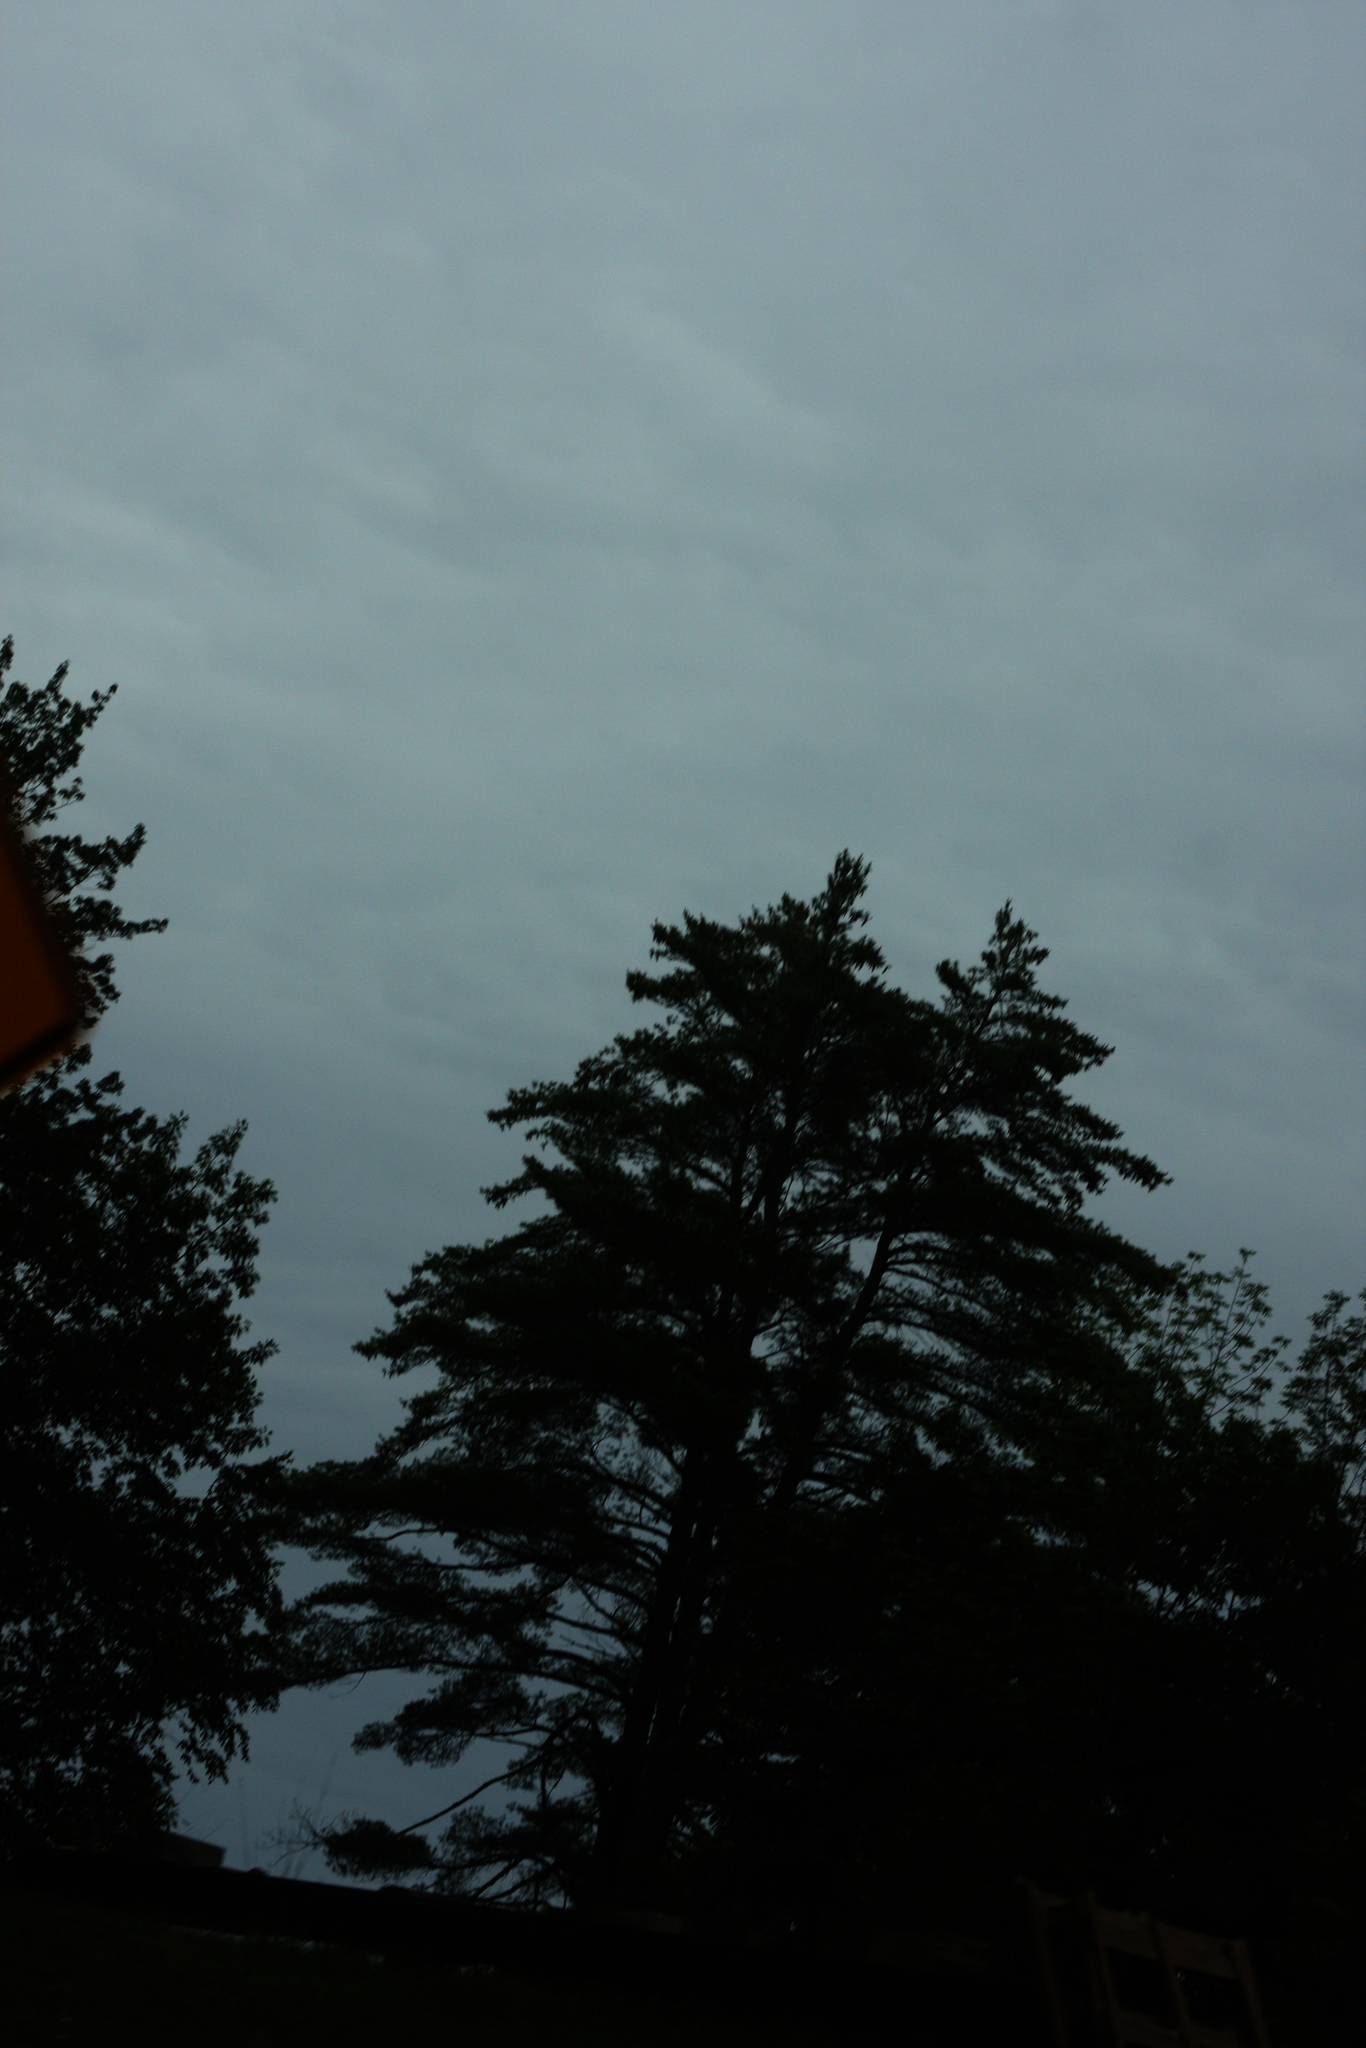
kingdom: Plantae
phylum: Tracheophyta
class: Pinopsida
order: Pinales
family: Pinaceae
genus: Pinus
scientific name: Pinus strobus
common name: Weymouth pine
